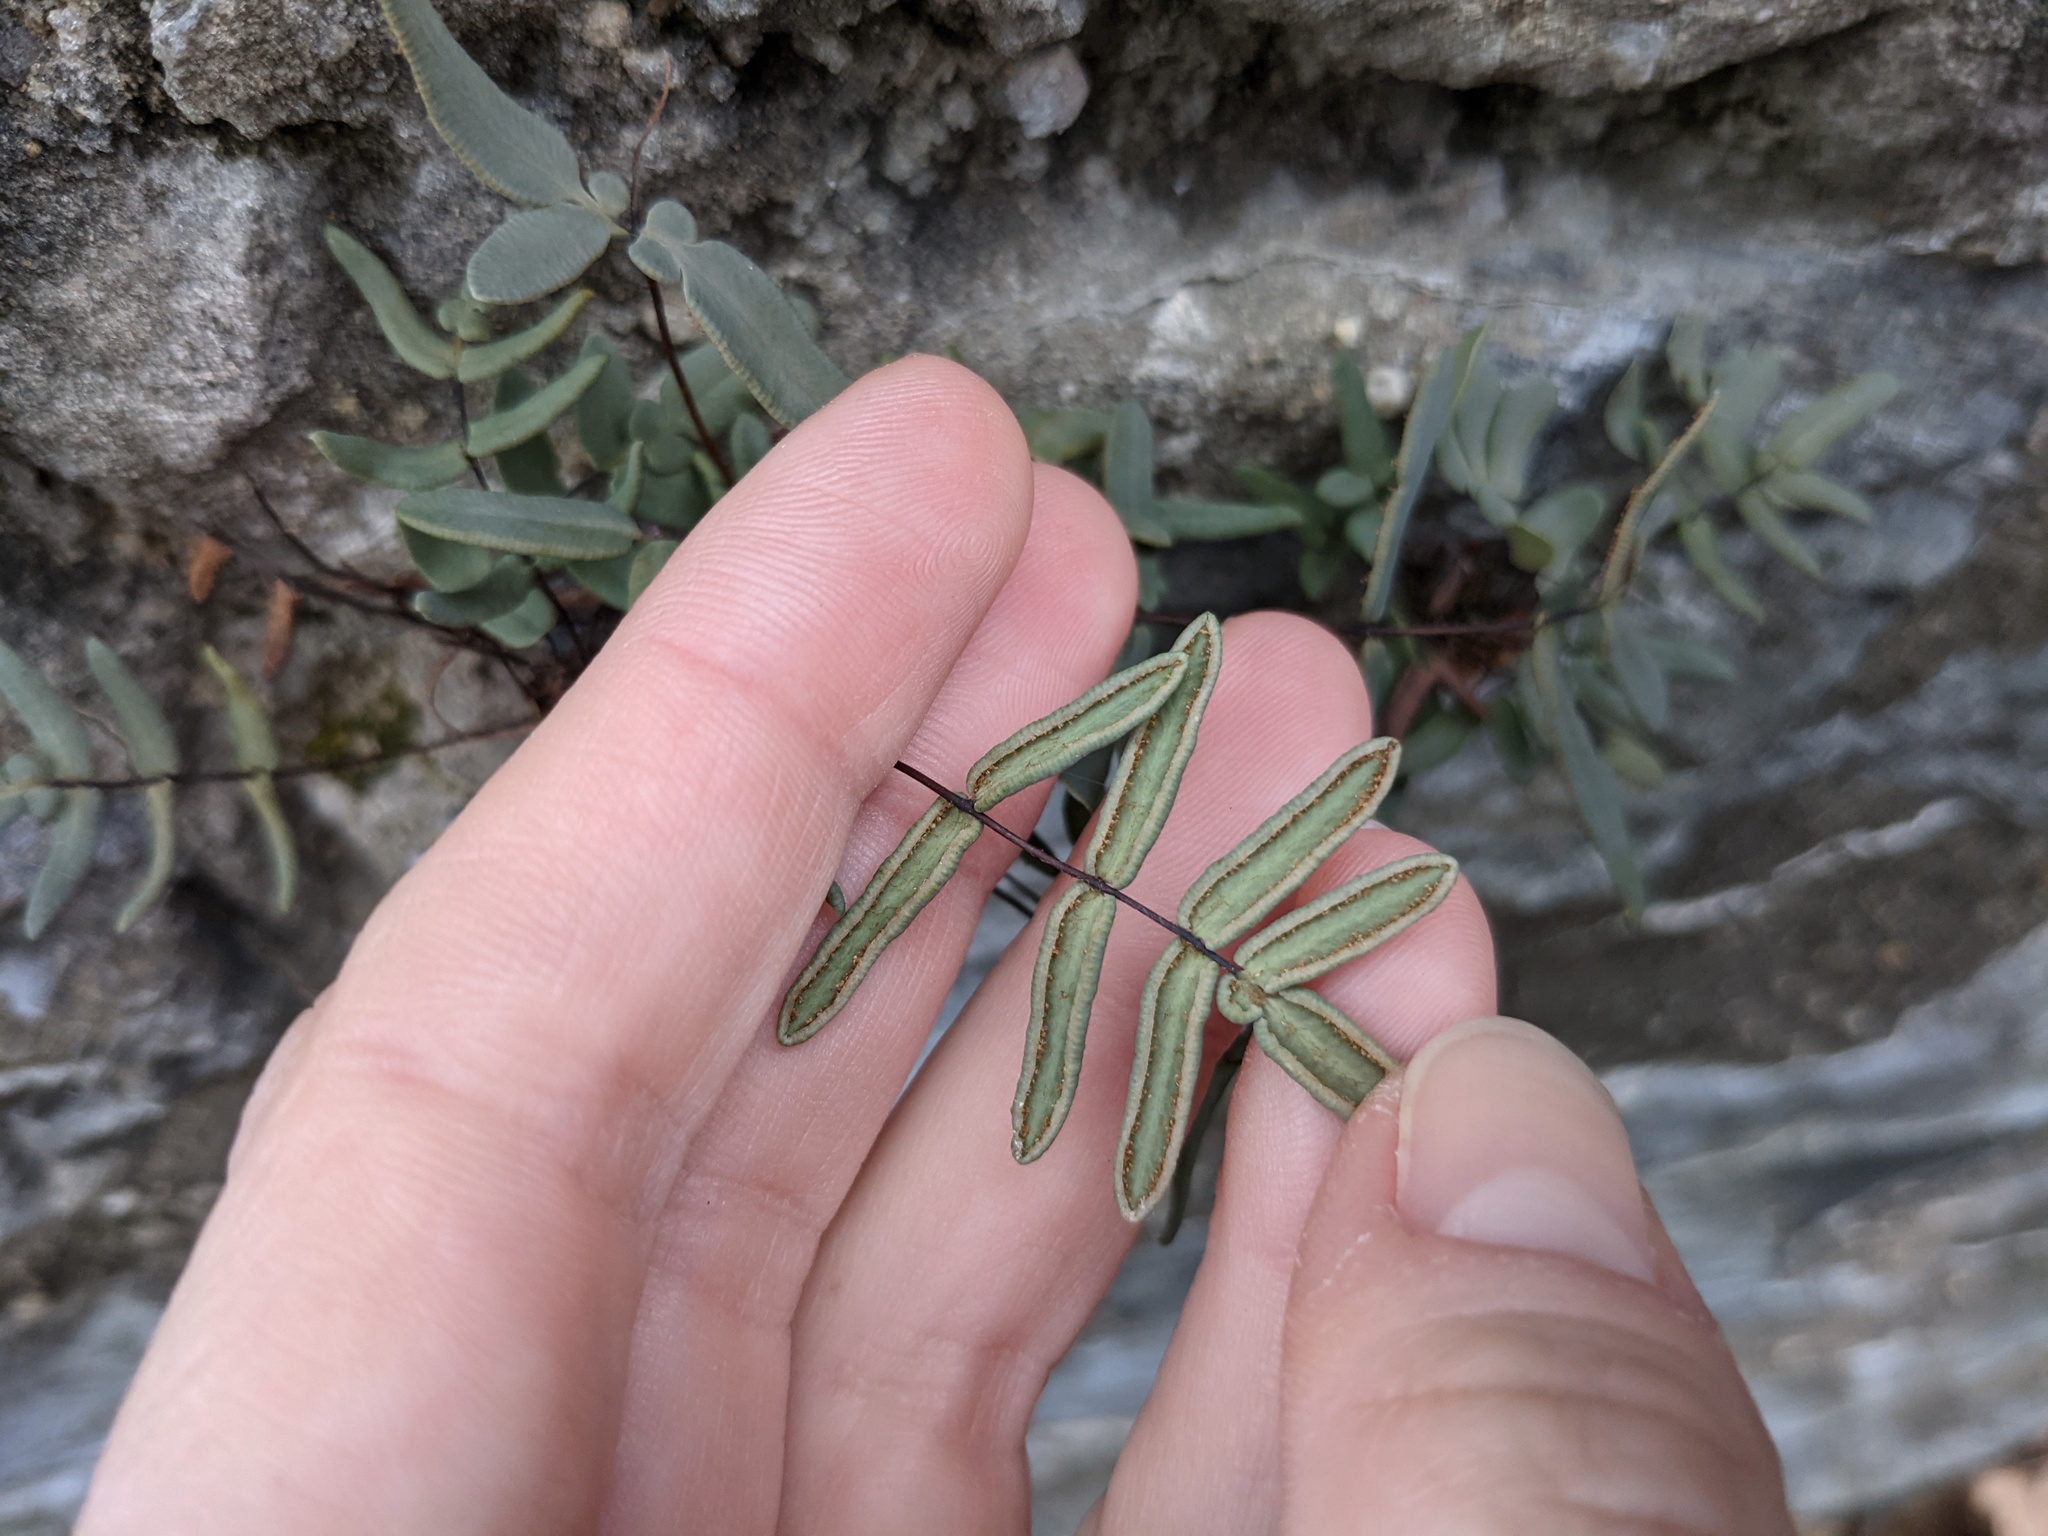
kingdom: Plantae
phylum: Tracheophyta
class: Polypodiopsida
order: Polypodiales
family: Pteridaceae
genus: Pellaea
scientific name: Pellaea glabella
